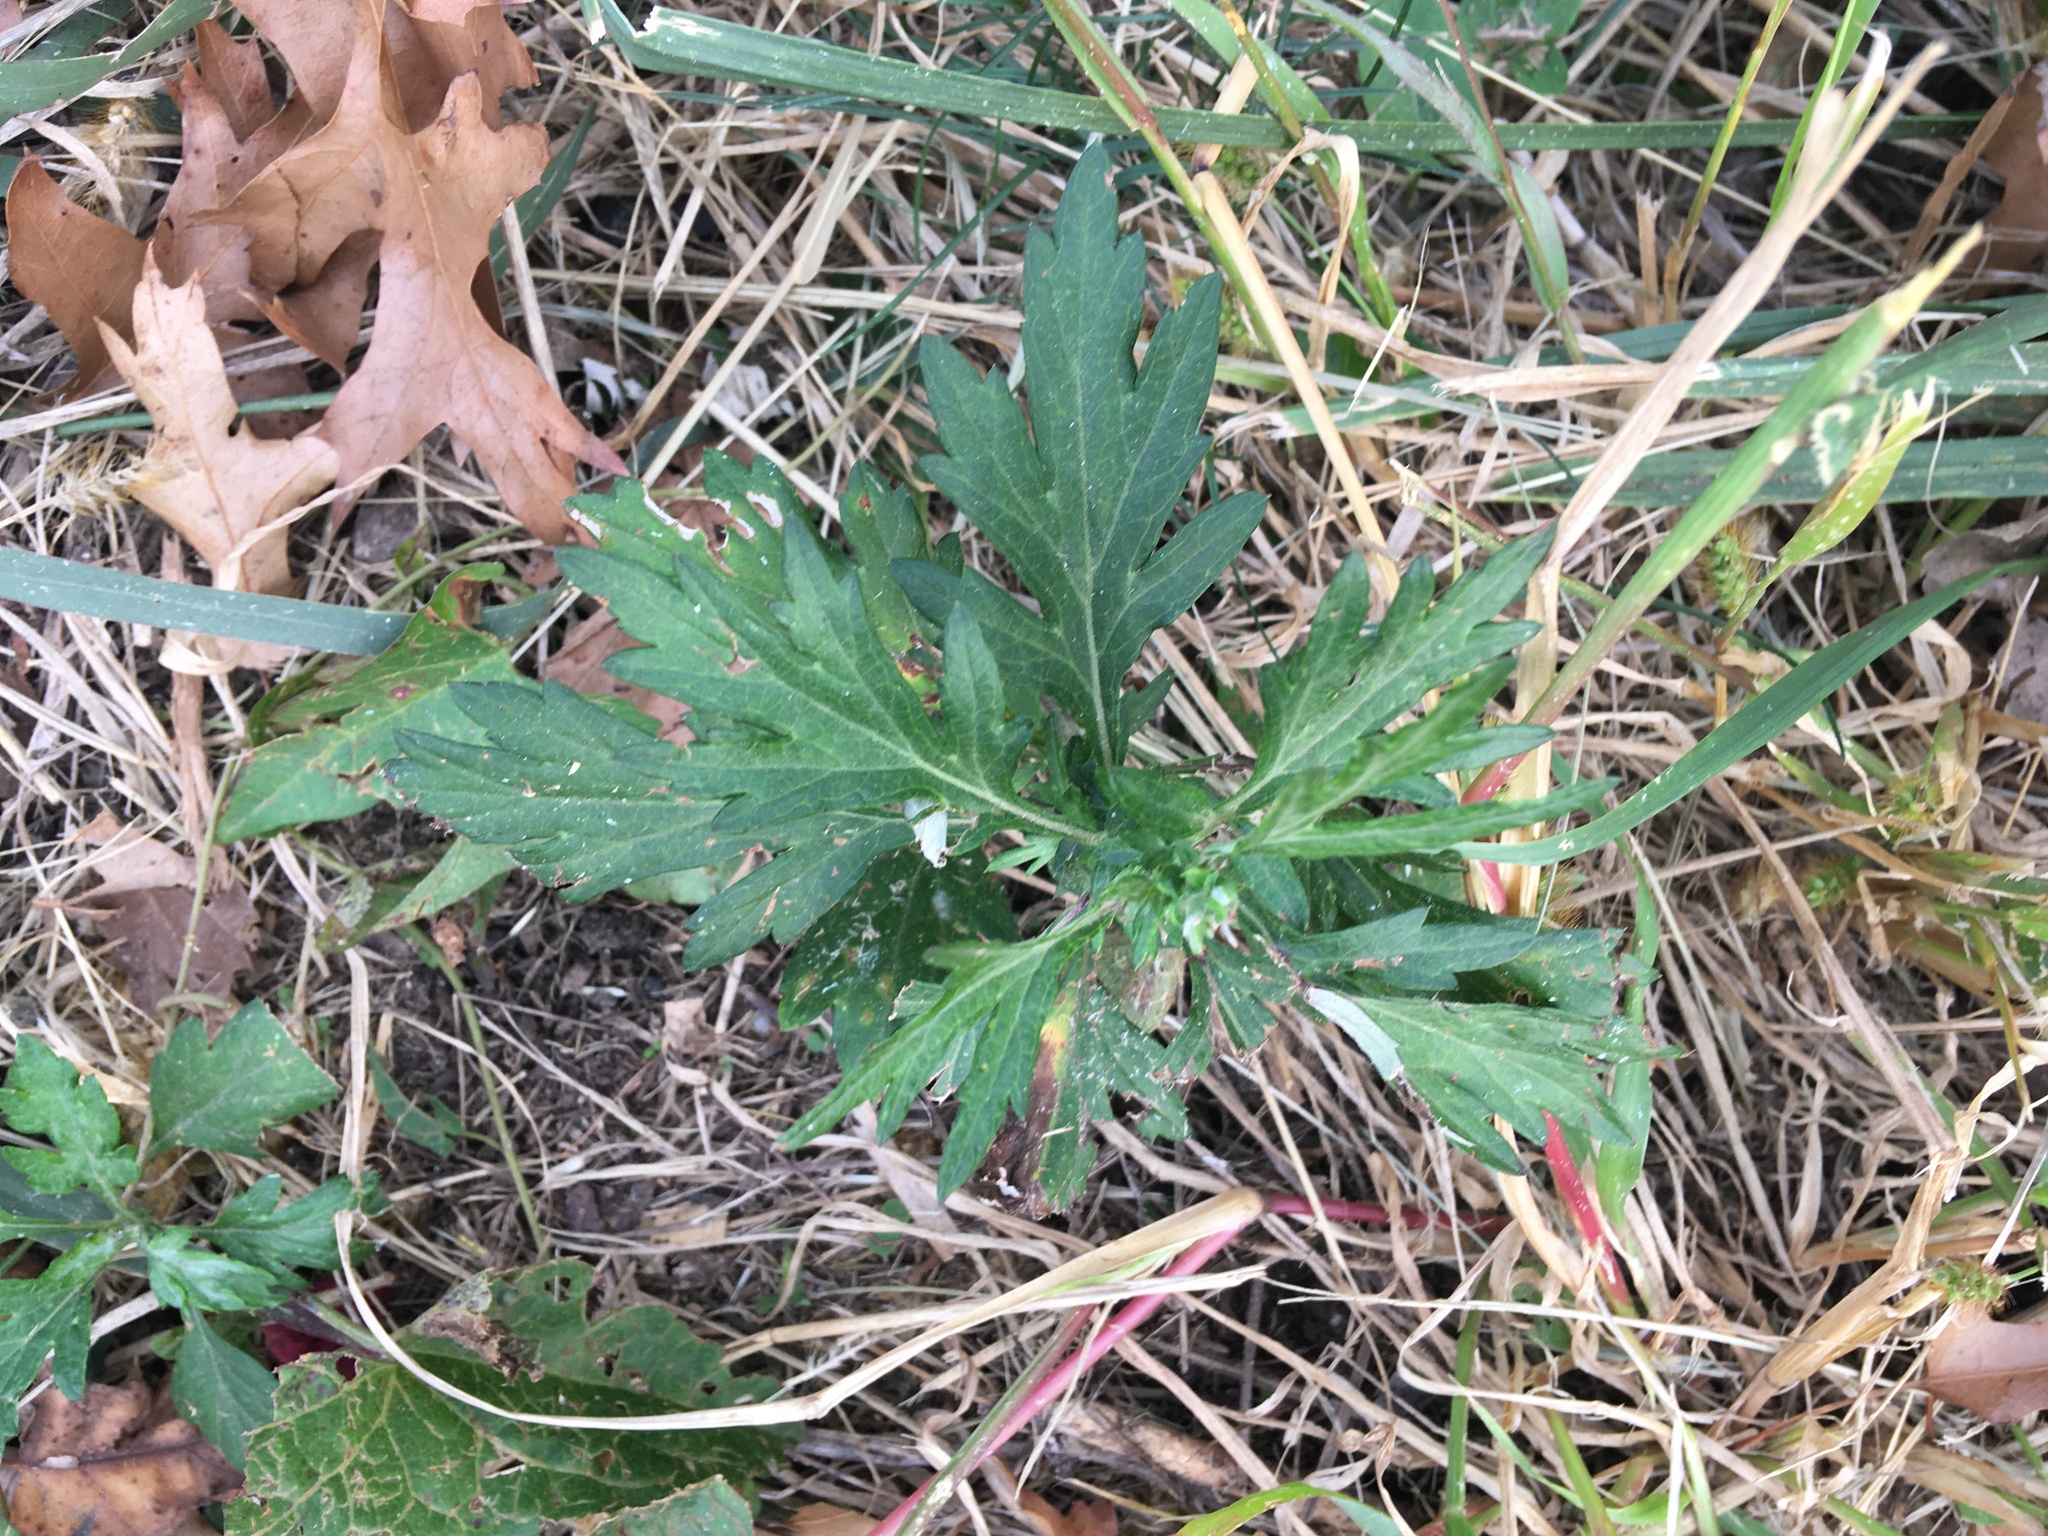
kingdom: Plantae
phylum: Tracheophyta
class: Magnoliopsida
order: Asterales
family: Asteraceae
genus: Artemisia
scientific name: Artemisia vulgaris
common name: Mugwort
